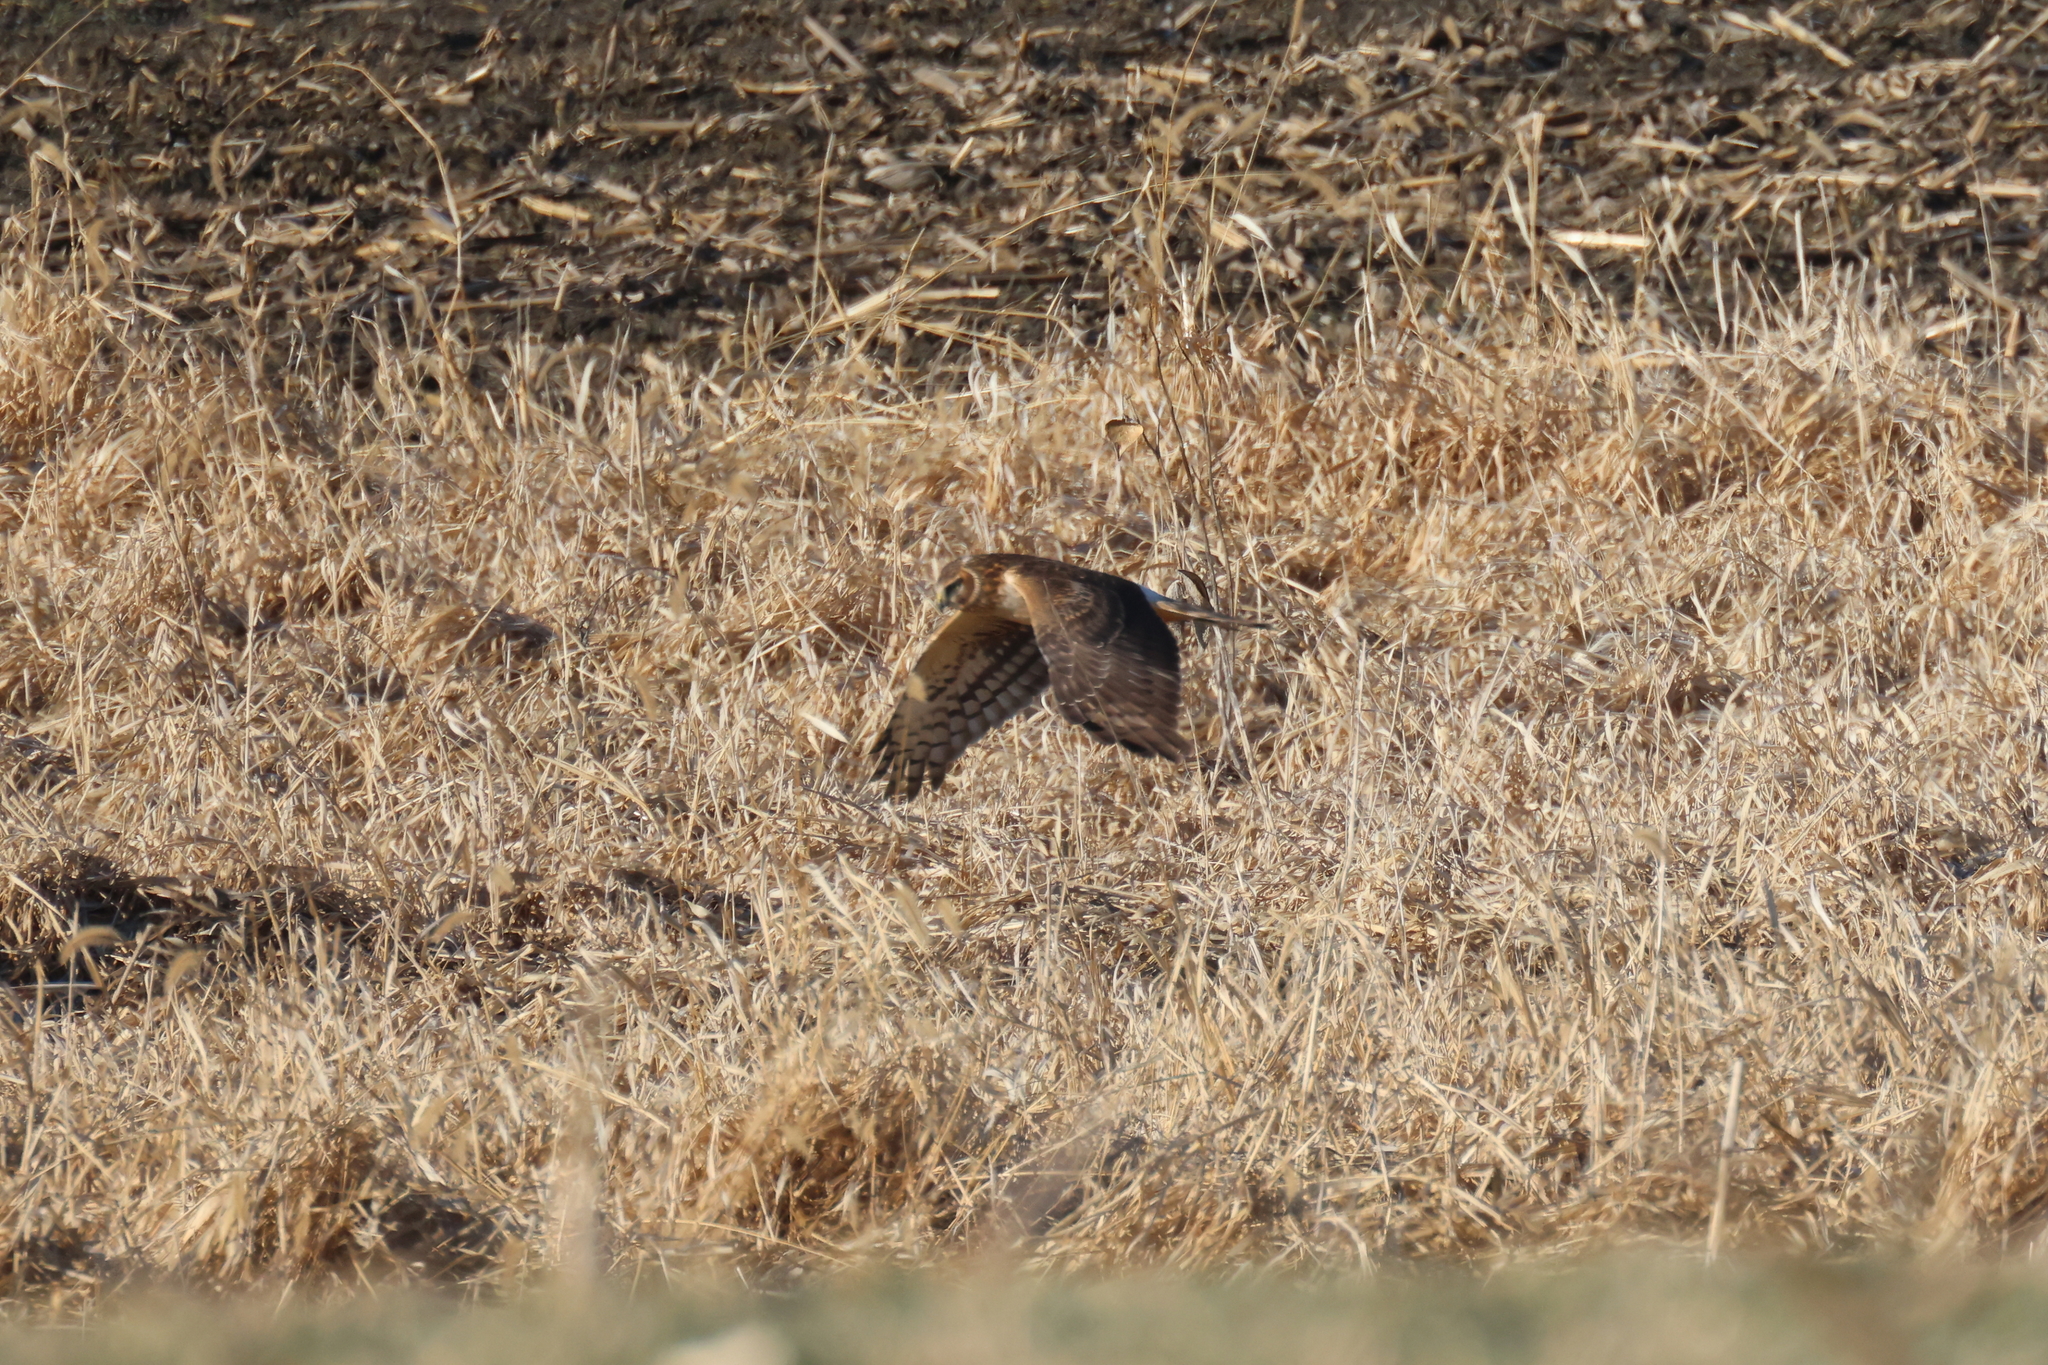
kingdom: Animalia
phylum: Chordata
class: Aves
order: Accipitriformes
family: Accipitridae
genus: Circus
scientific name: Circus cyaneus
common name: Hen harrier
